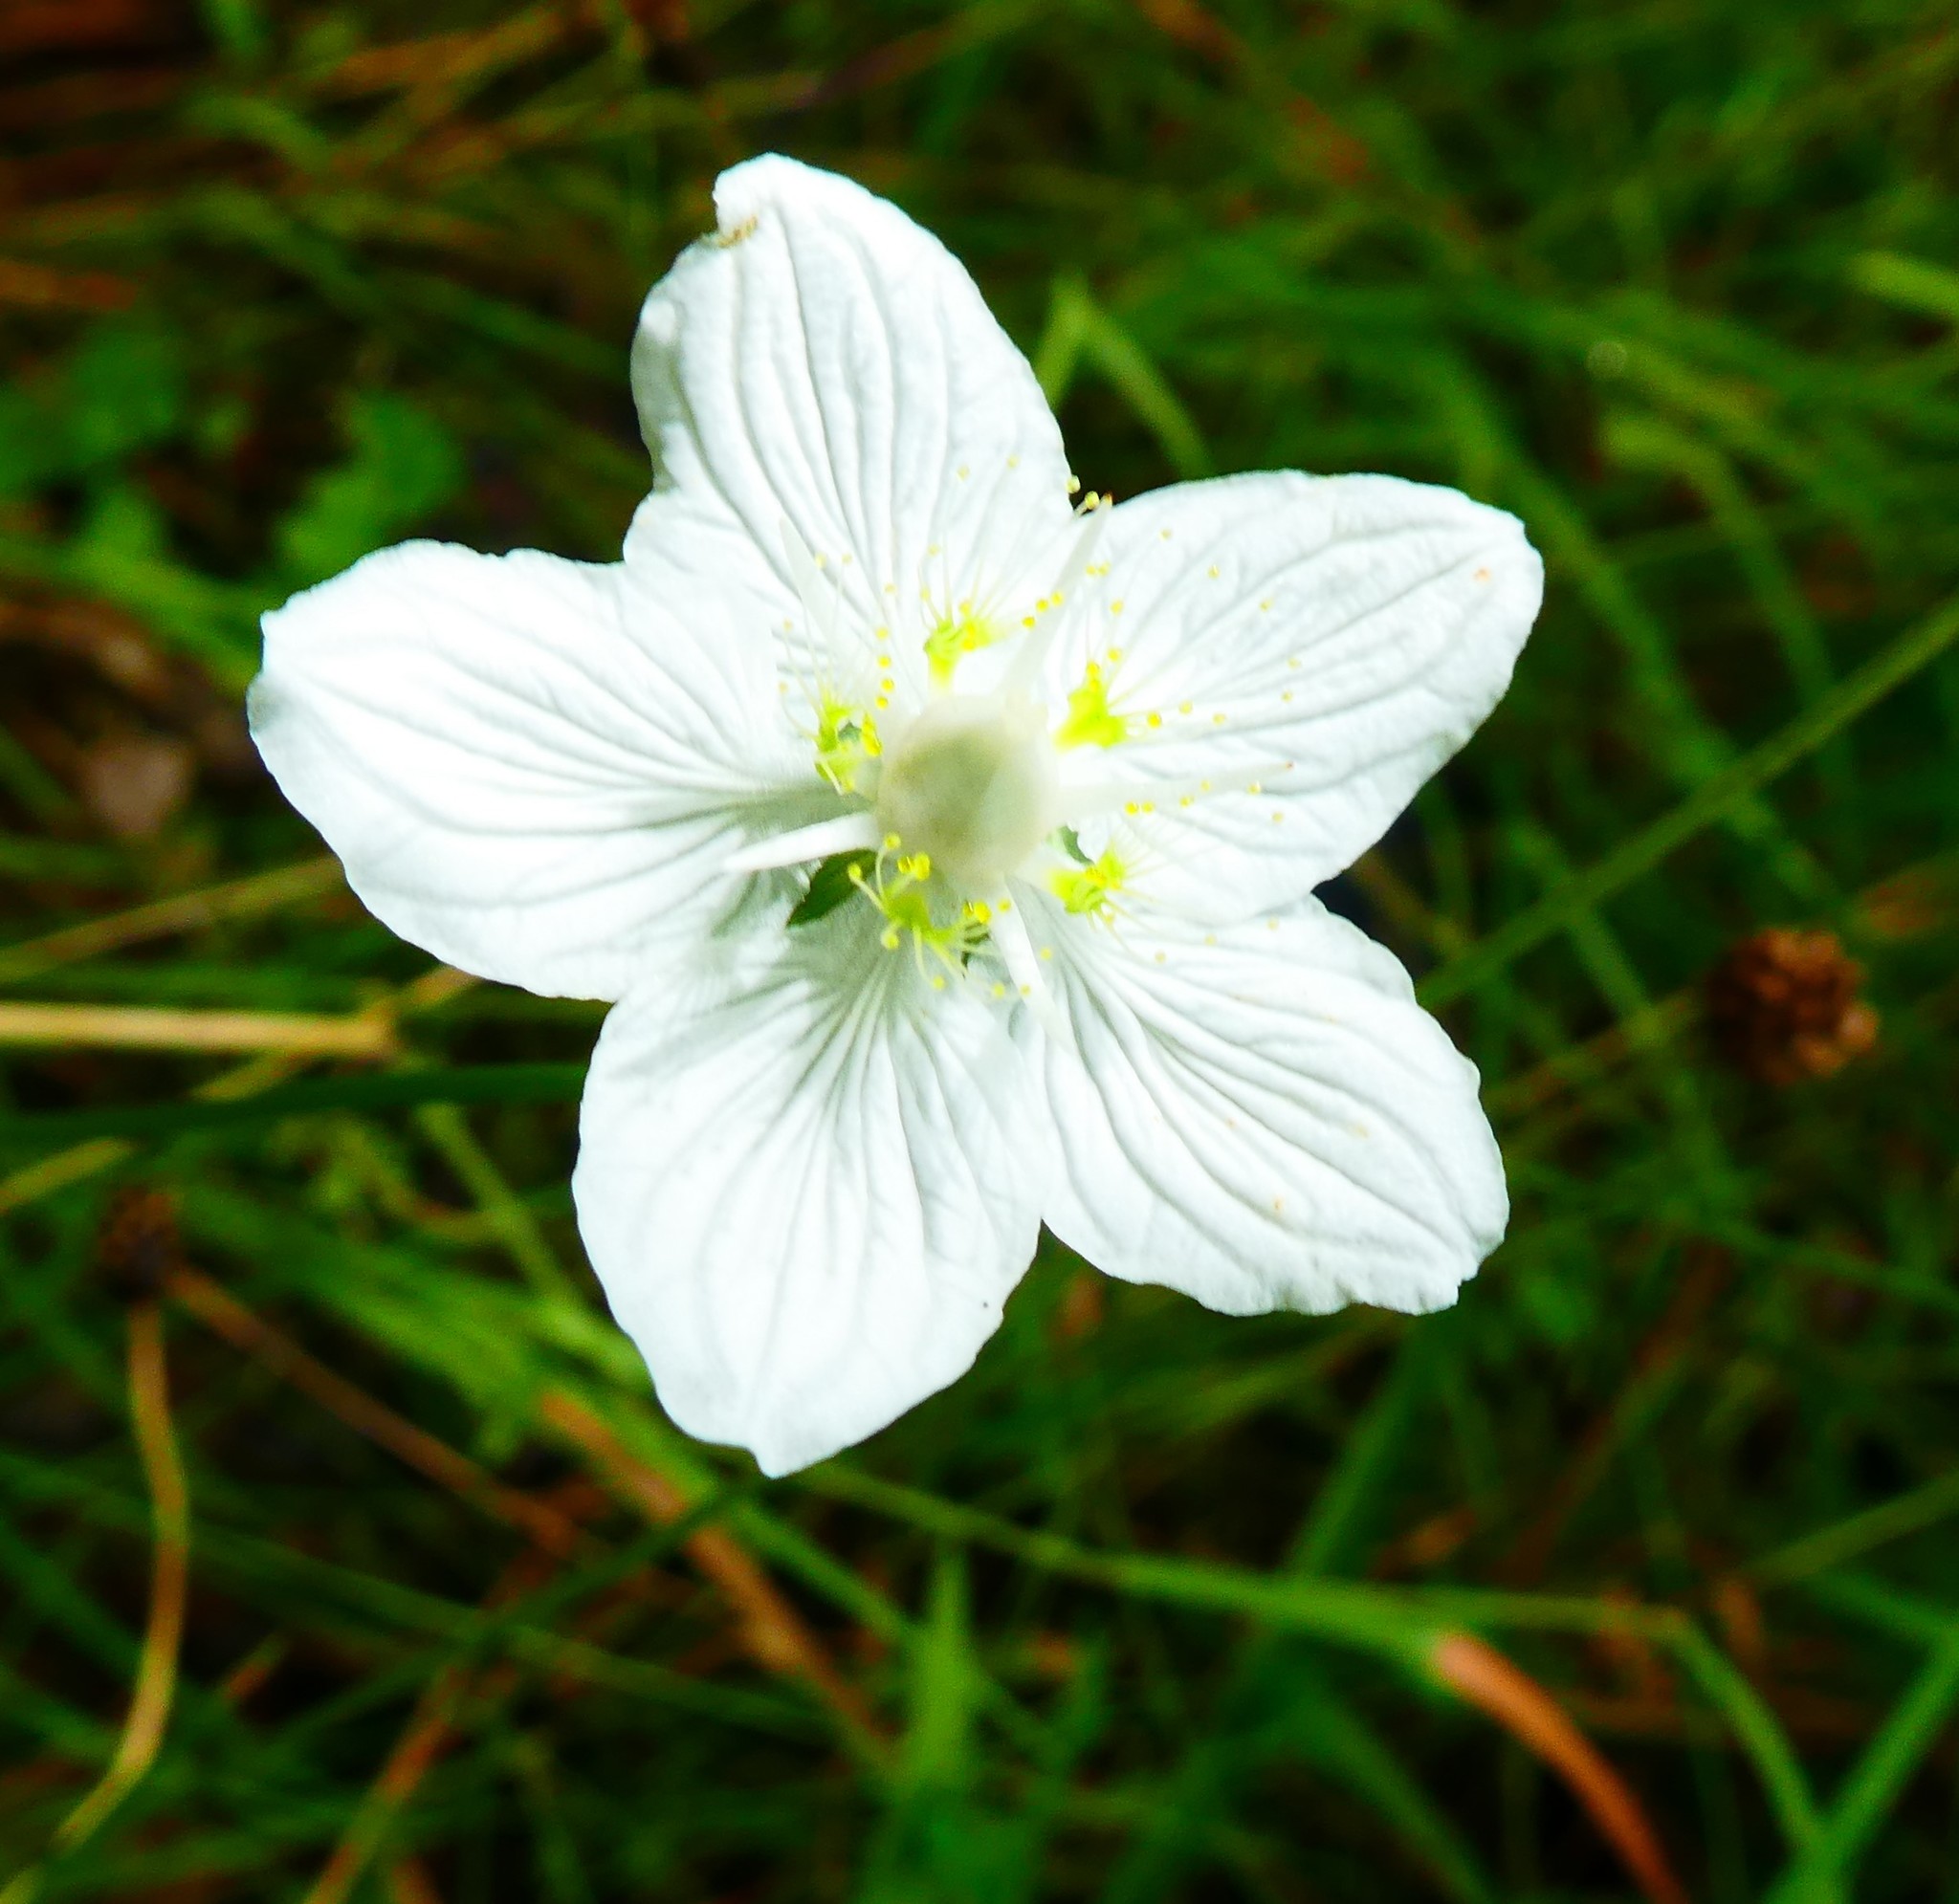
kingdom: Plantae
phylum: Tracheophyta
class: Magnoliopsida
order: Celastrales
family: Parnassiaceae
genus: Parnassia
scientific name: Parnassia palustris
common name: Grass-of-parnassus
